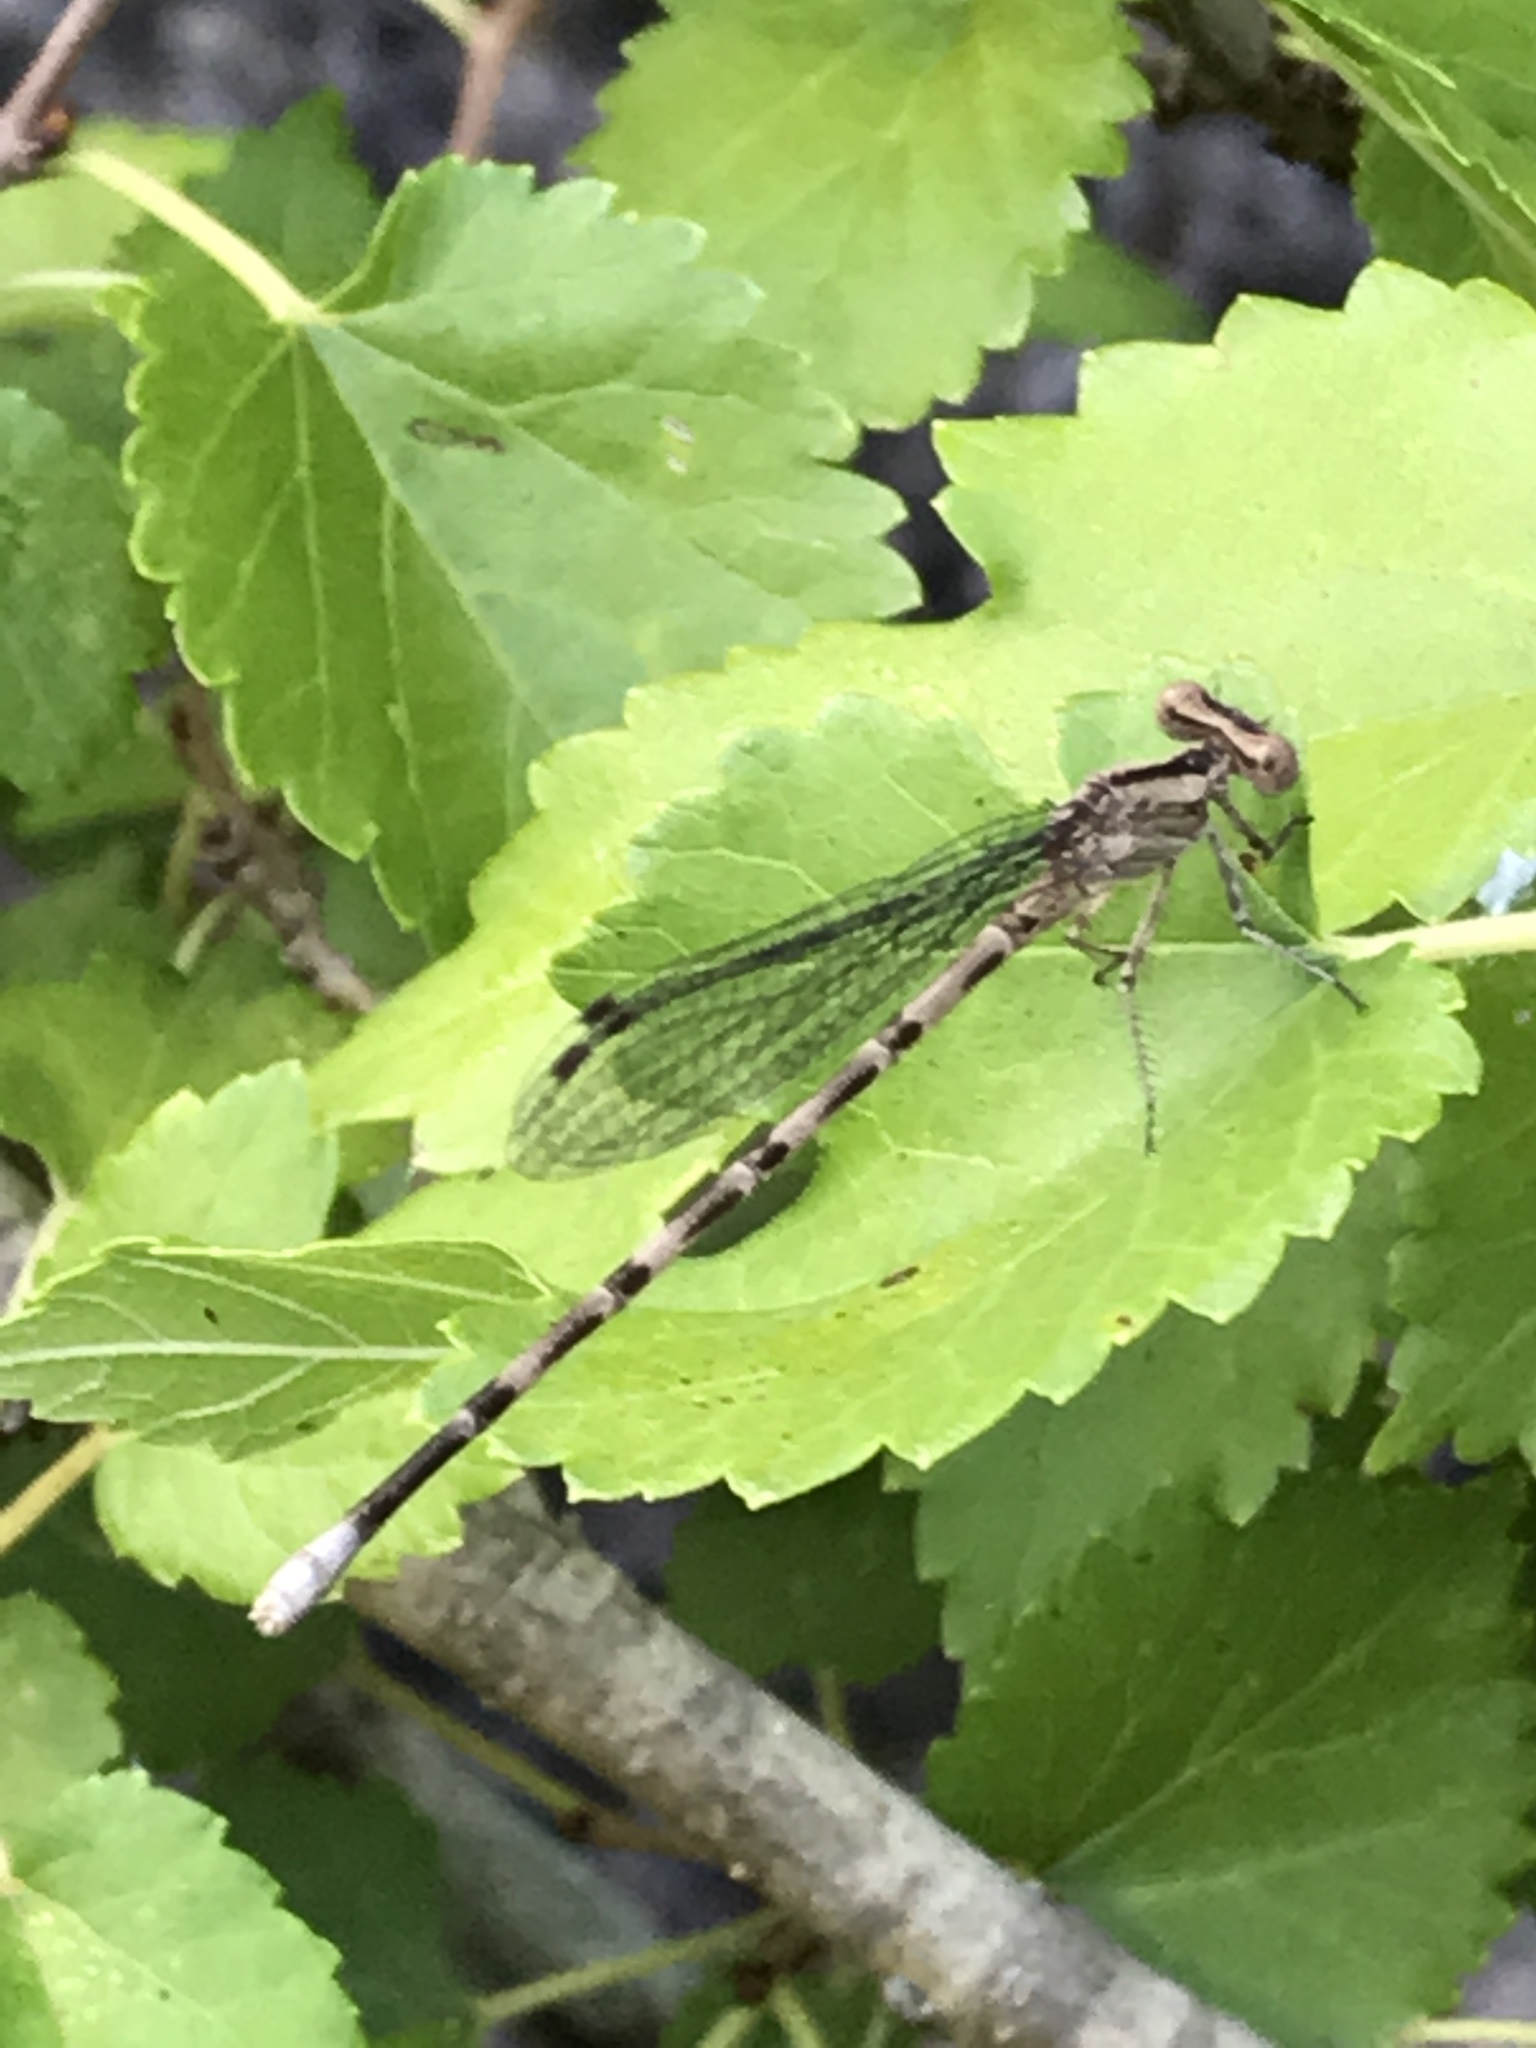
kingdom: Animalia
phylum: Arthropoda
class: Insecta
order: Odonata
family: Coenagrionidae
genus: Argia
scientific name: Argia immunda
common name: Kiowa dancer
